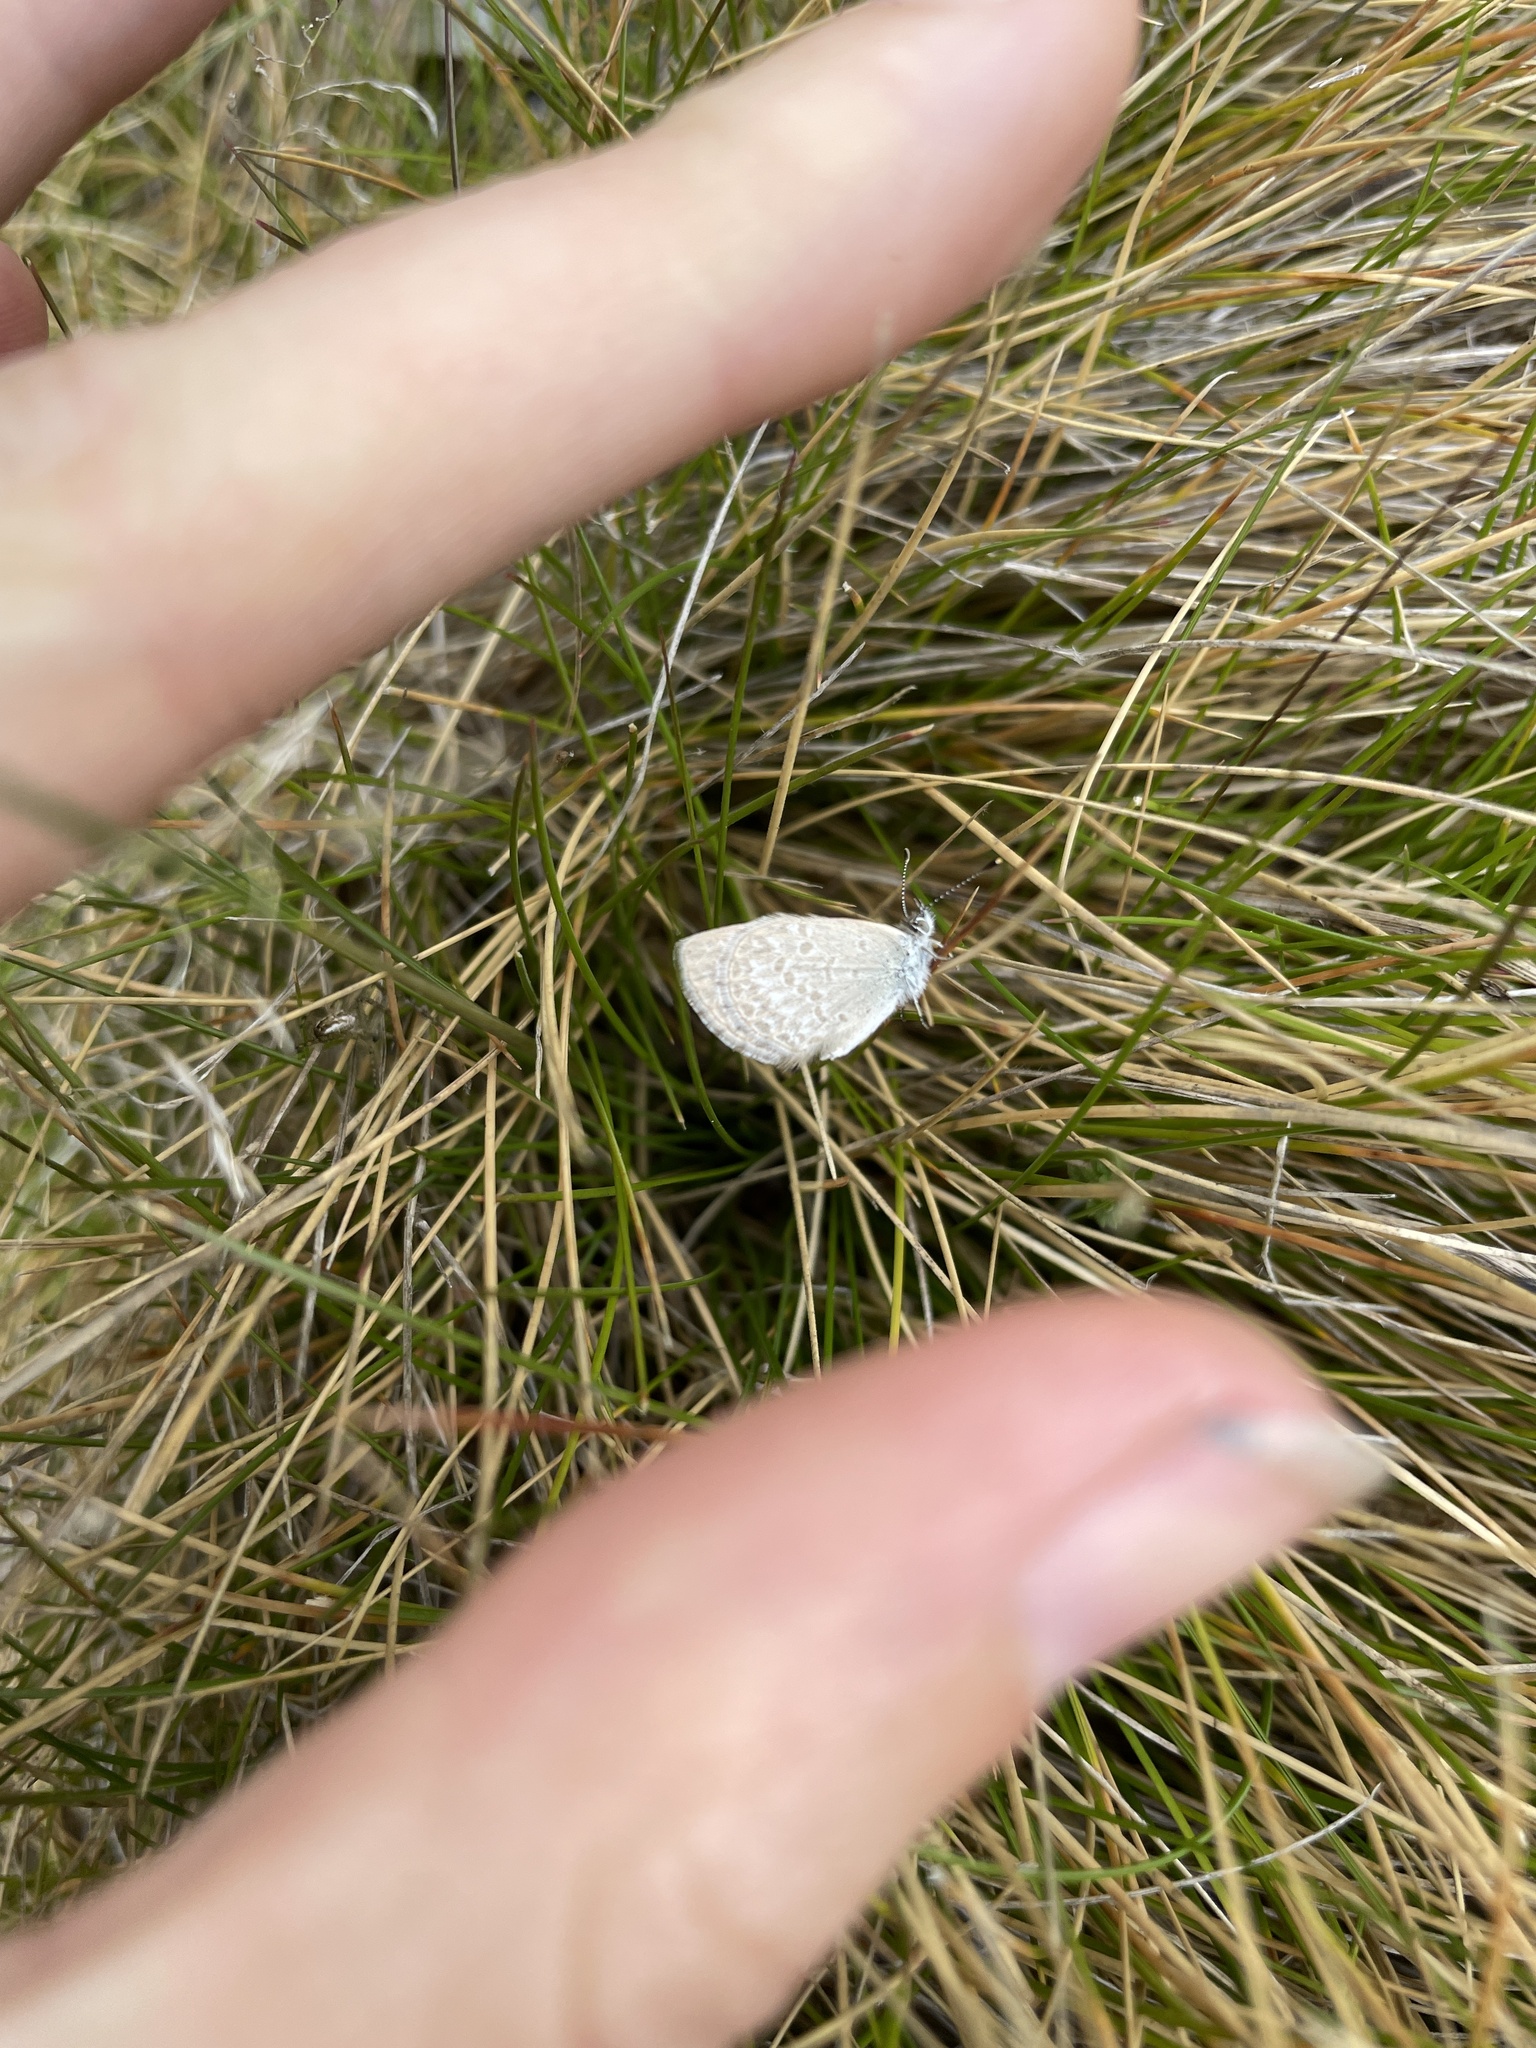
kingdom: Animalia
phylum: Arthropoda
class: Insecta
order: Lepidoptera
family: Lycaenidae
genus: Zizina
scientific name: Zizina otis
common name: Lesser grass blue
